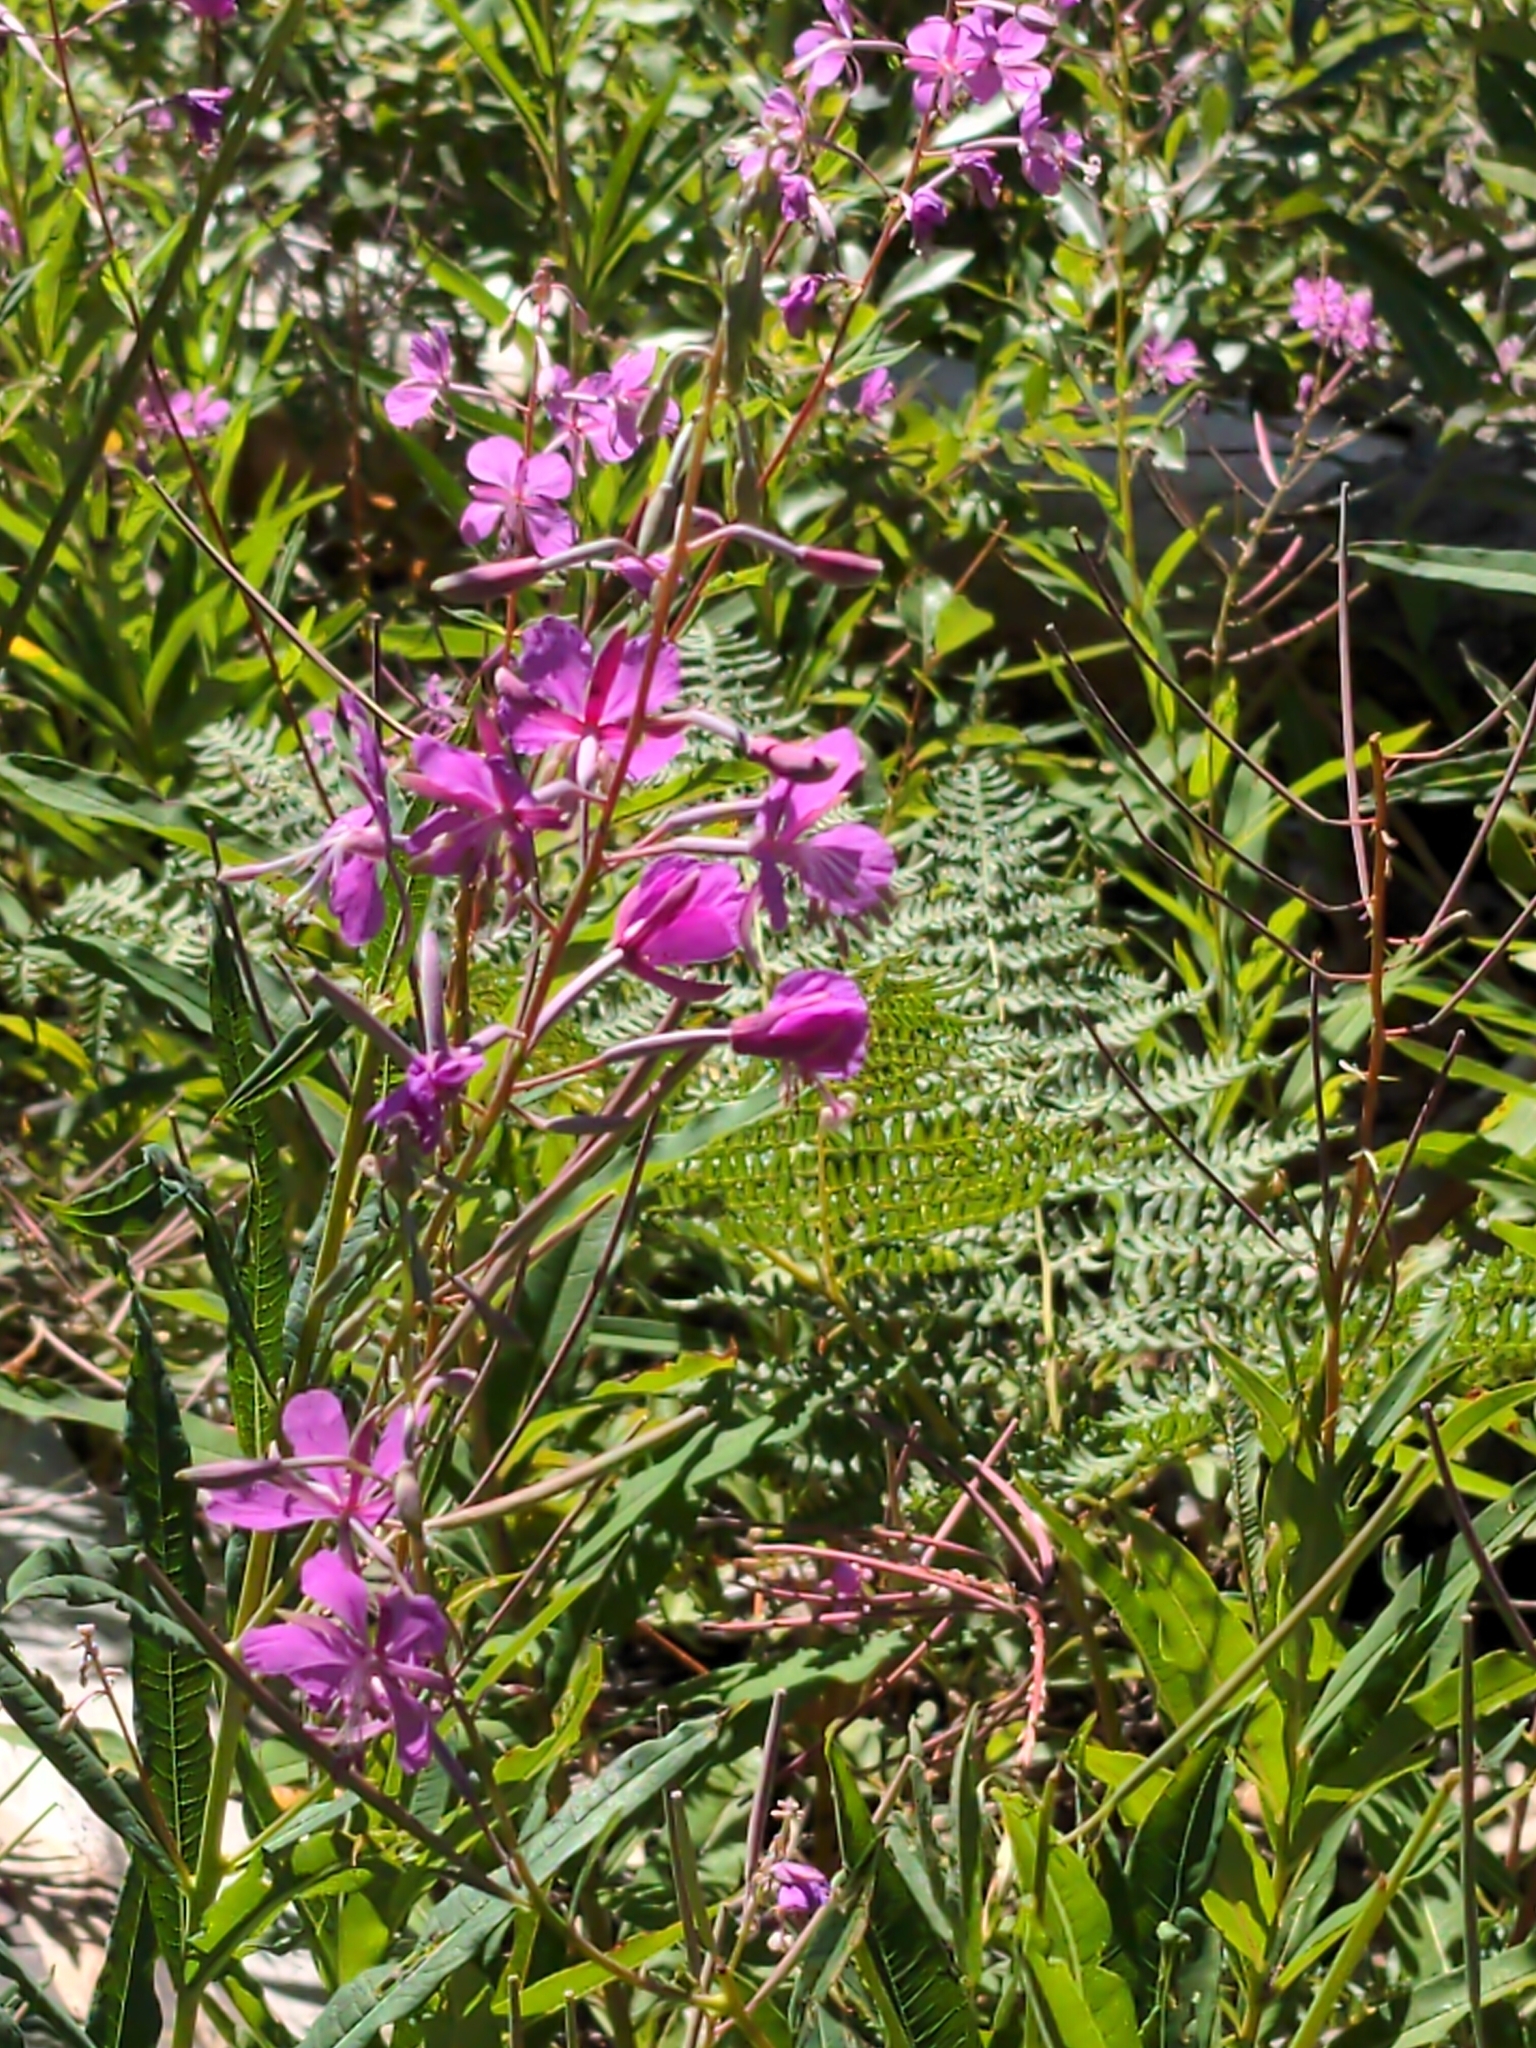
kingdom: Plantae
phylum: Tracheophyta
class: Magnoliopsida
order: Myrtales
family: Onagraceae
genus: Chamaenerion
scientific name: Chamaenerion angustifolium
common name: Fireweed
